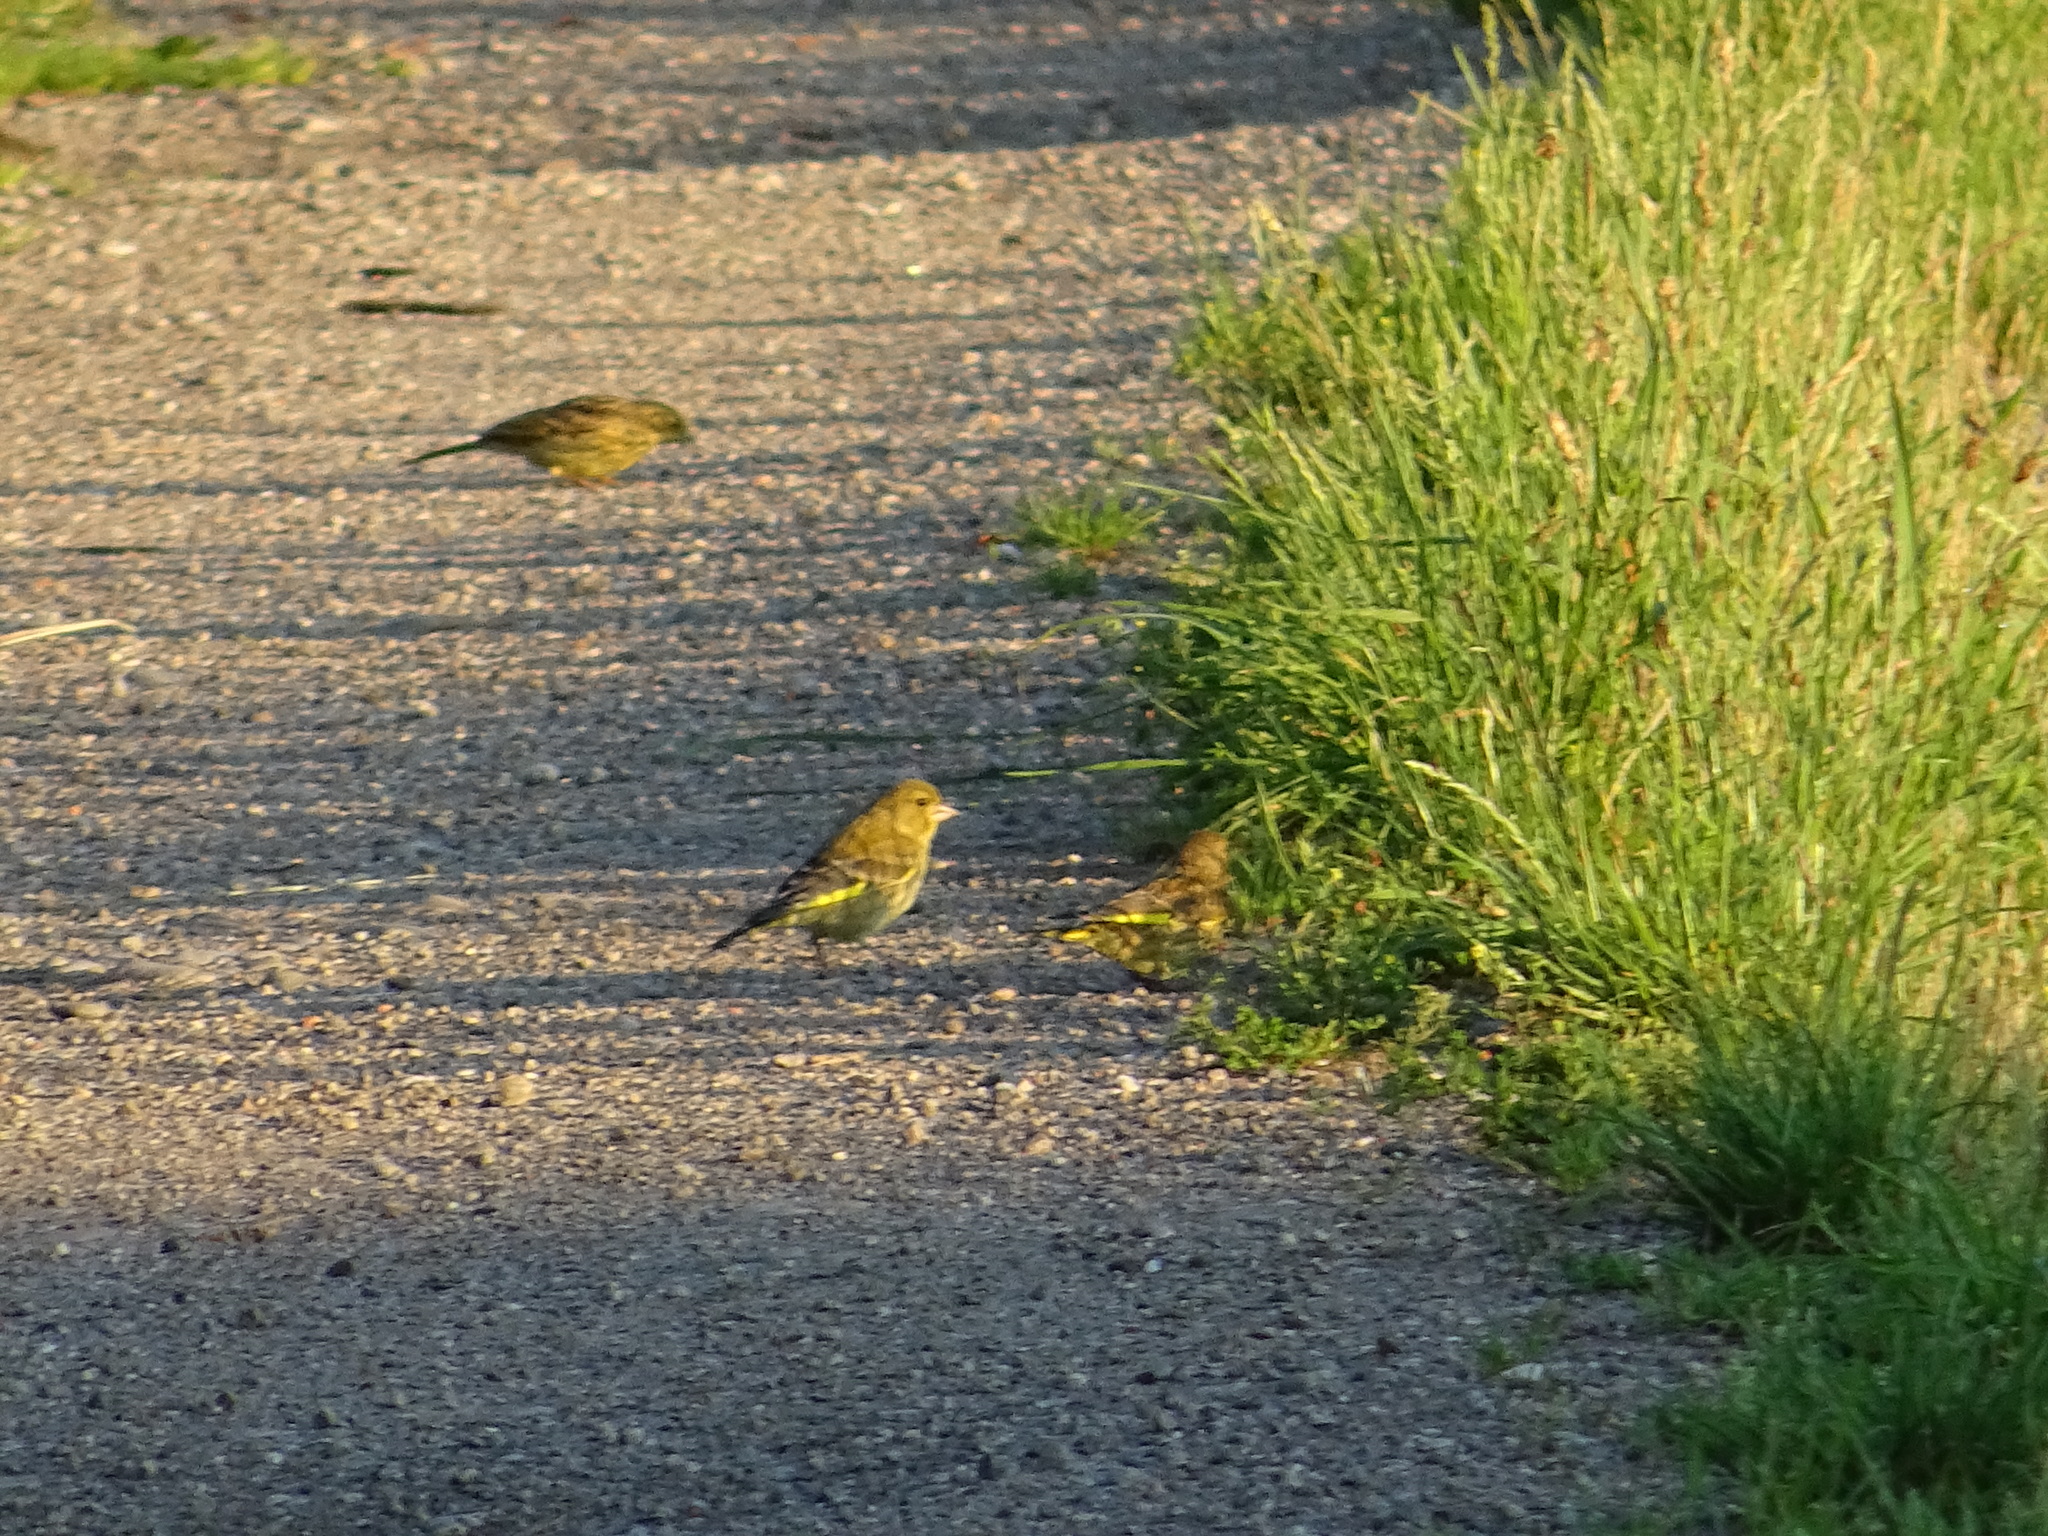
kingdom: Plantae
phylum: Tracheophyta
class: Liliopsida
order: Poales
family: Poaceae
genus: Chloris
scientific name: Chloris chloris
